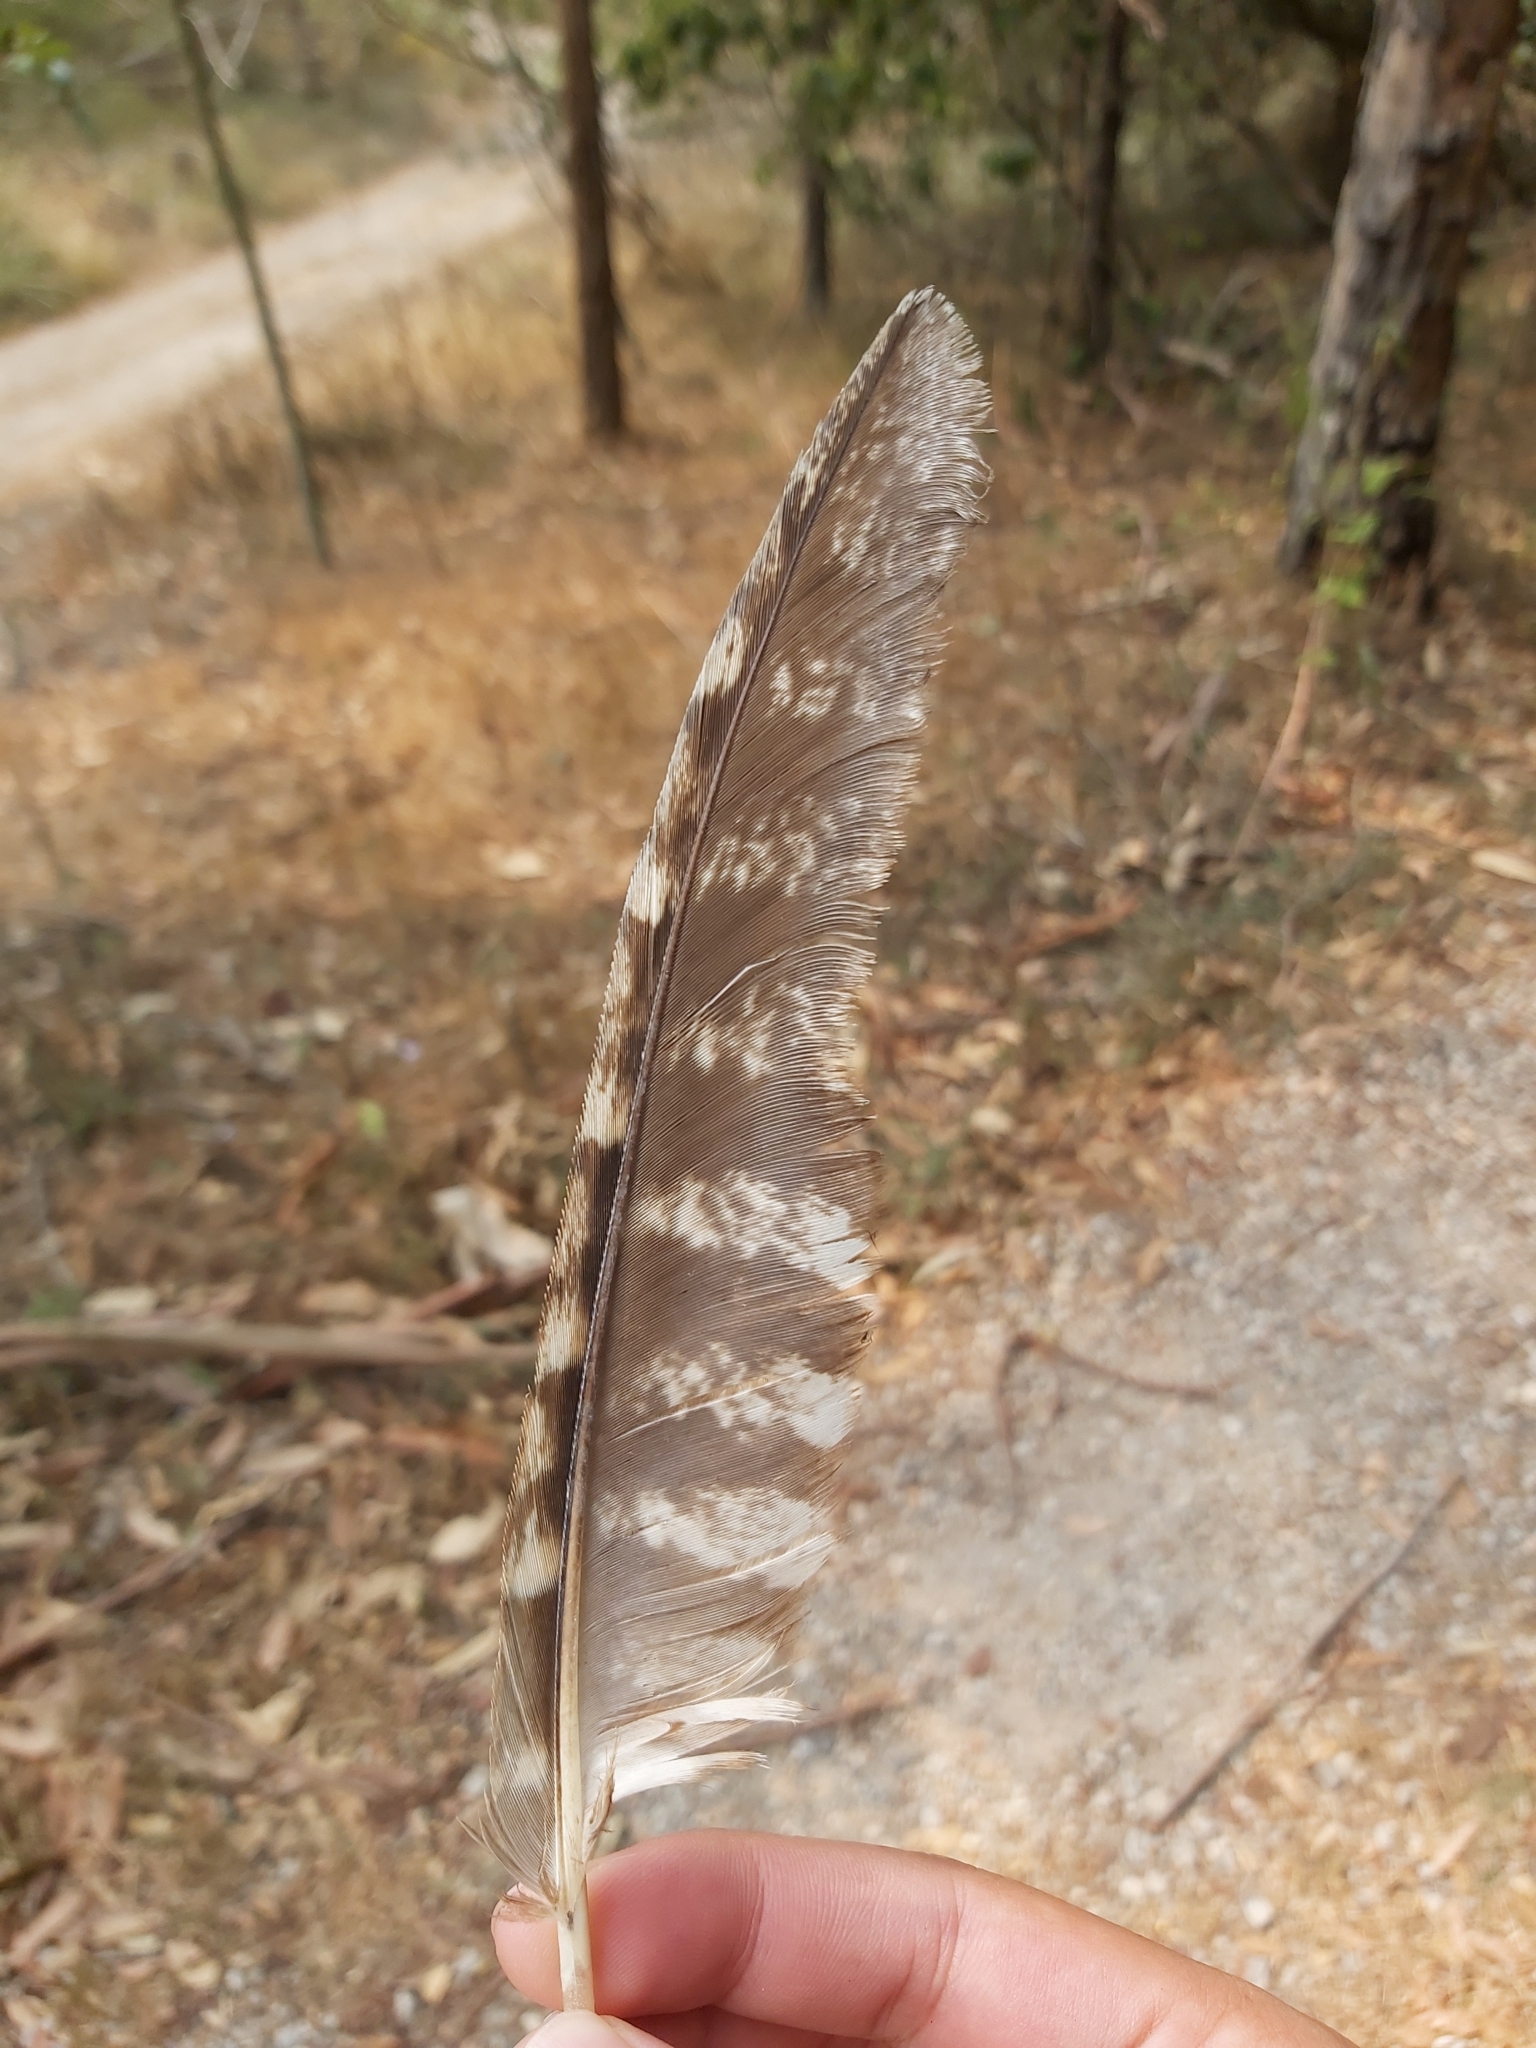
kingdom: Animalia
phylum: Chordata
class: Aves
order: Caprimulgiformes
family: Podargidae
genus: Podargus
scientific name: Podargus strigoides
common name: Tawny frogmouth
